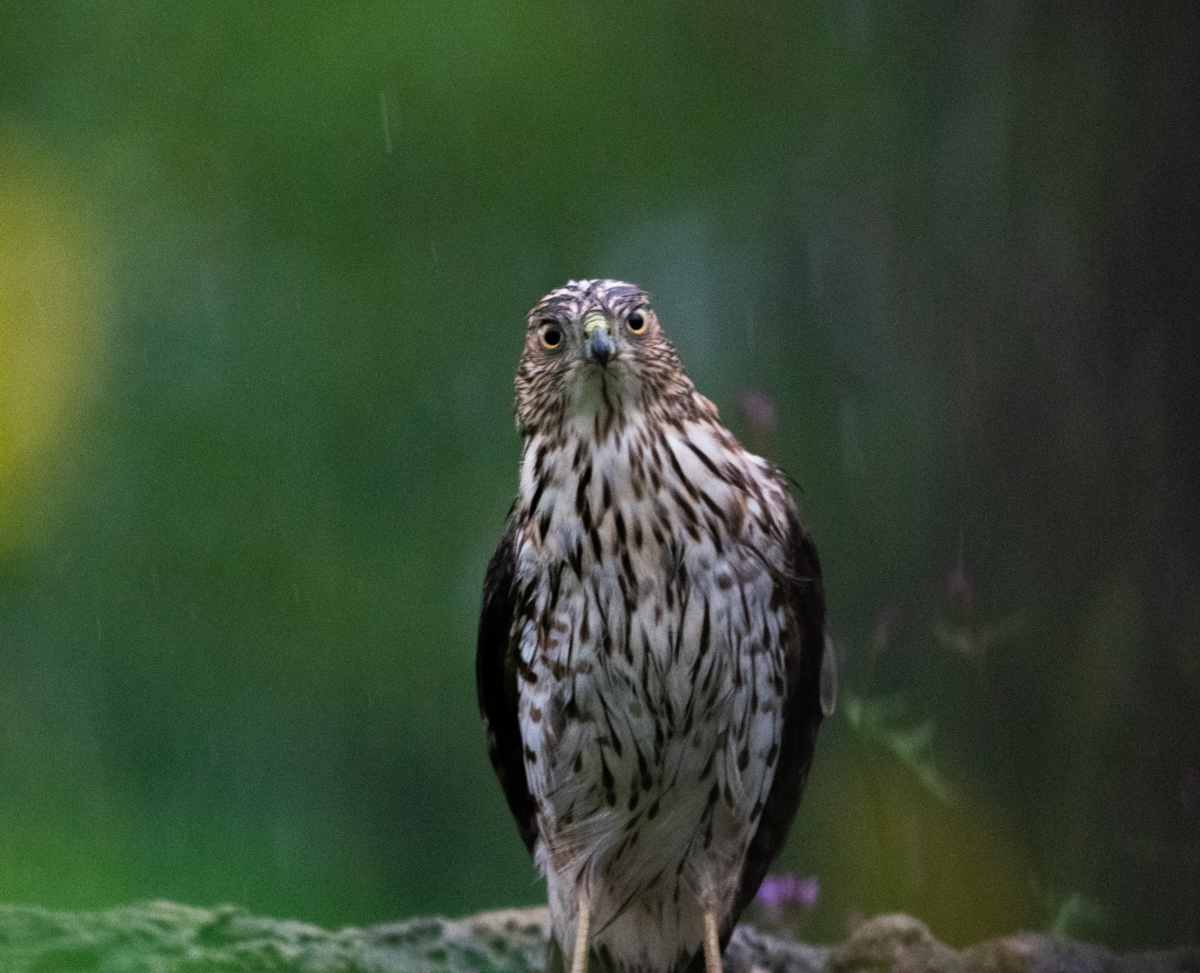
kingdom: Animalia
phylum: Chordata
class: Aves
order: Accipitriformes
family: Accipitridae
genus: Accipiter
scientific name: Accipiter cooperii
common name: Cooper's hawk
